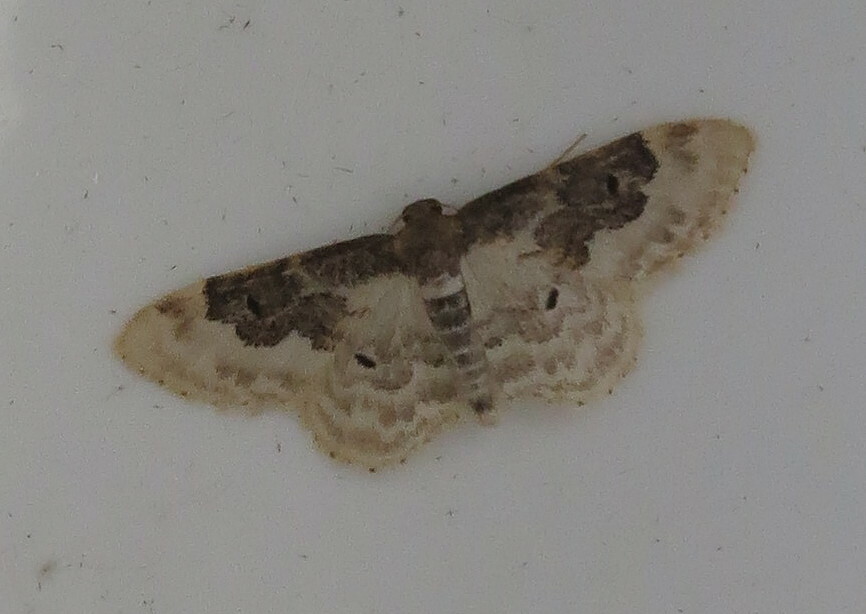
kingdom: Animalia
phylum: Arthropoda
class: Insecta
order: Lepidoptera
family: Geometridae
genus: Idaea
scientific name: Idaea rusticata
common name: Least carpet
